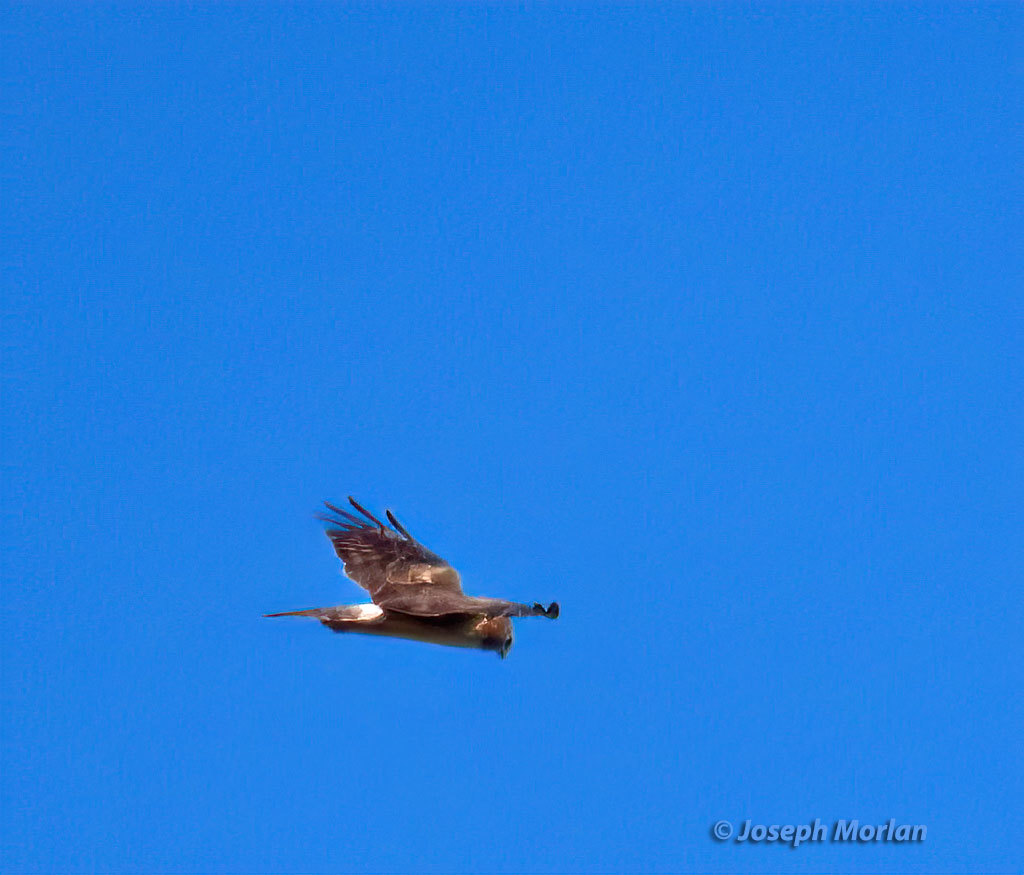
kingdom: Animalia
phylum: Chordata
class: Aves
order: Accipitriformes
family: Accipitridae
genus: Circus
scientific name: Circus cyaneus
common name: Hen harrier
